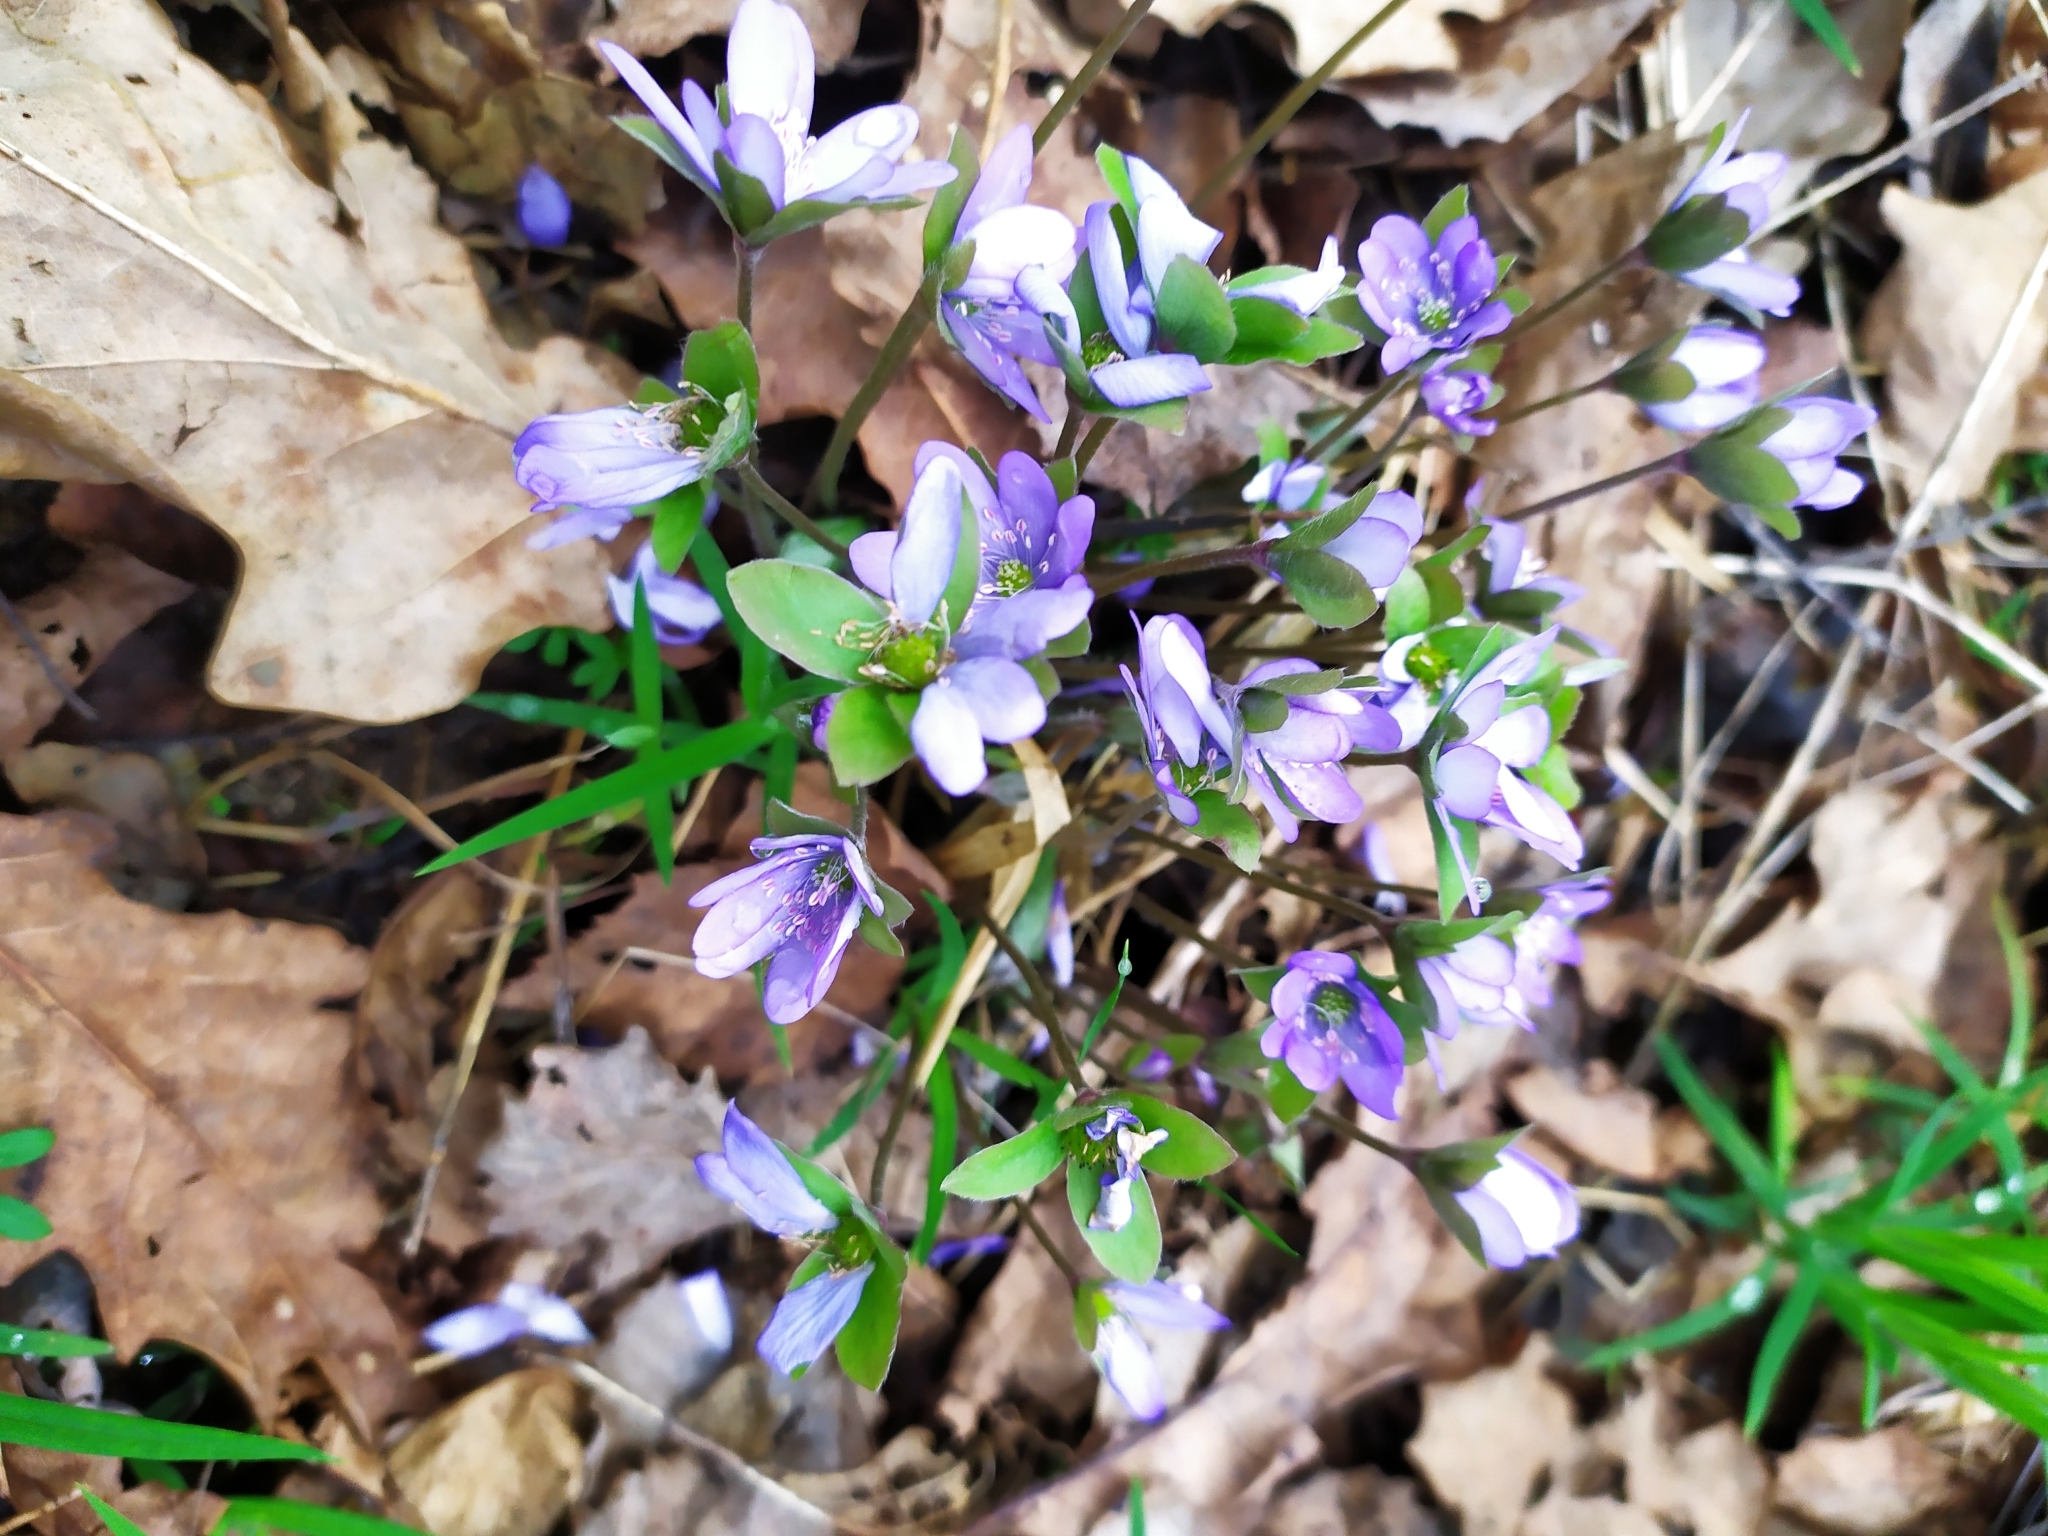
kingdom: Plantae
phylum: Tracheophyta
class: Magnoliopsida
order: Ranunculales
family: Ranunculaceae
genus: Hepatica
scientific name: Hepatica nobilis
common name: Liverleaf
